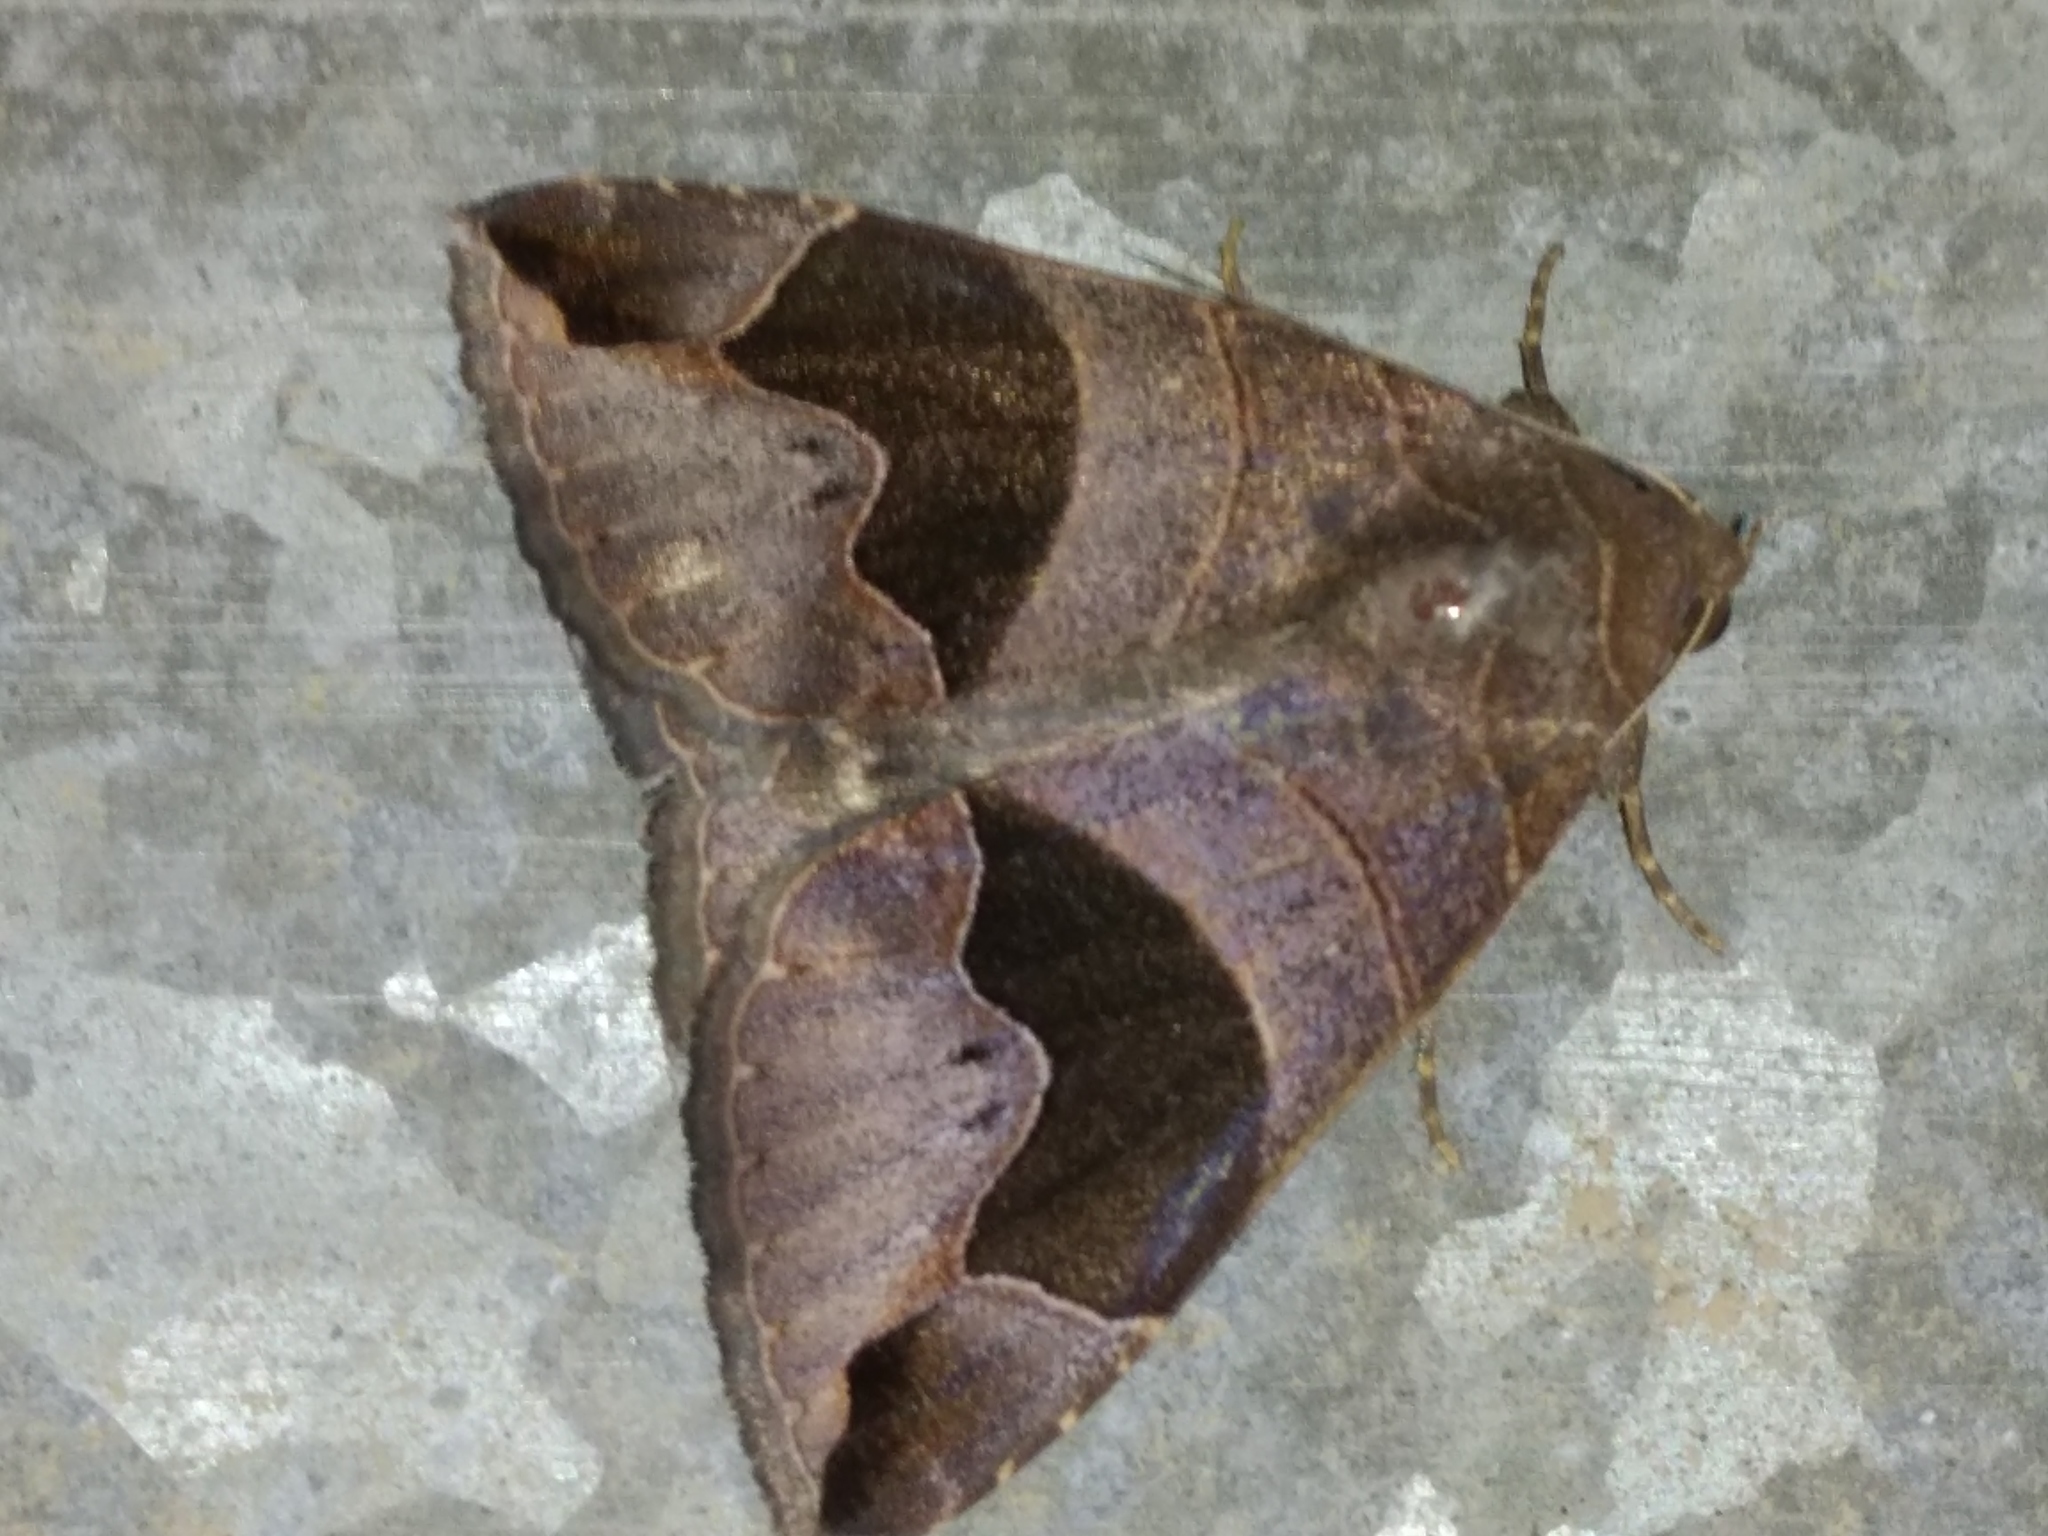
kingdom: Animalia
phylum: Arthropoda
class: Insecta
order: Lepidoptera
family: Erebidae
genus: Bastilla
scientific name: Bastilla solomonensis
